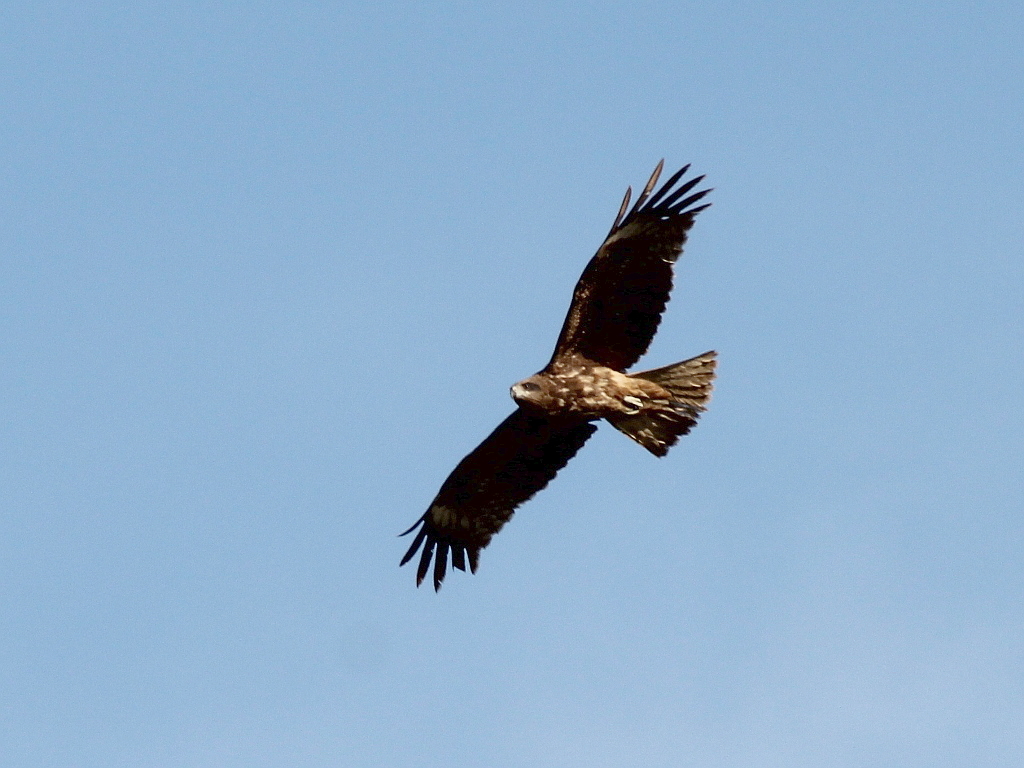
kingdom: Animalia
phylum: Chordata
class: Aves
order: Accipitriformes
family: Accipitridae
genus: Milvus
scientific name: Milvus migrans
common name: Black kite
